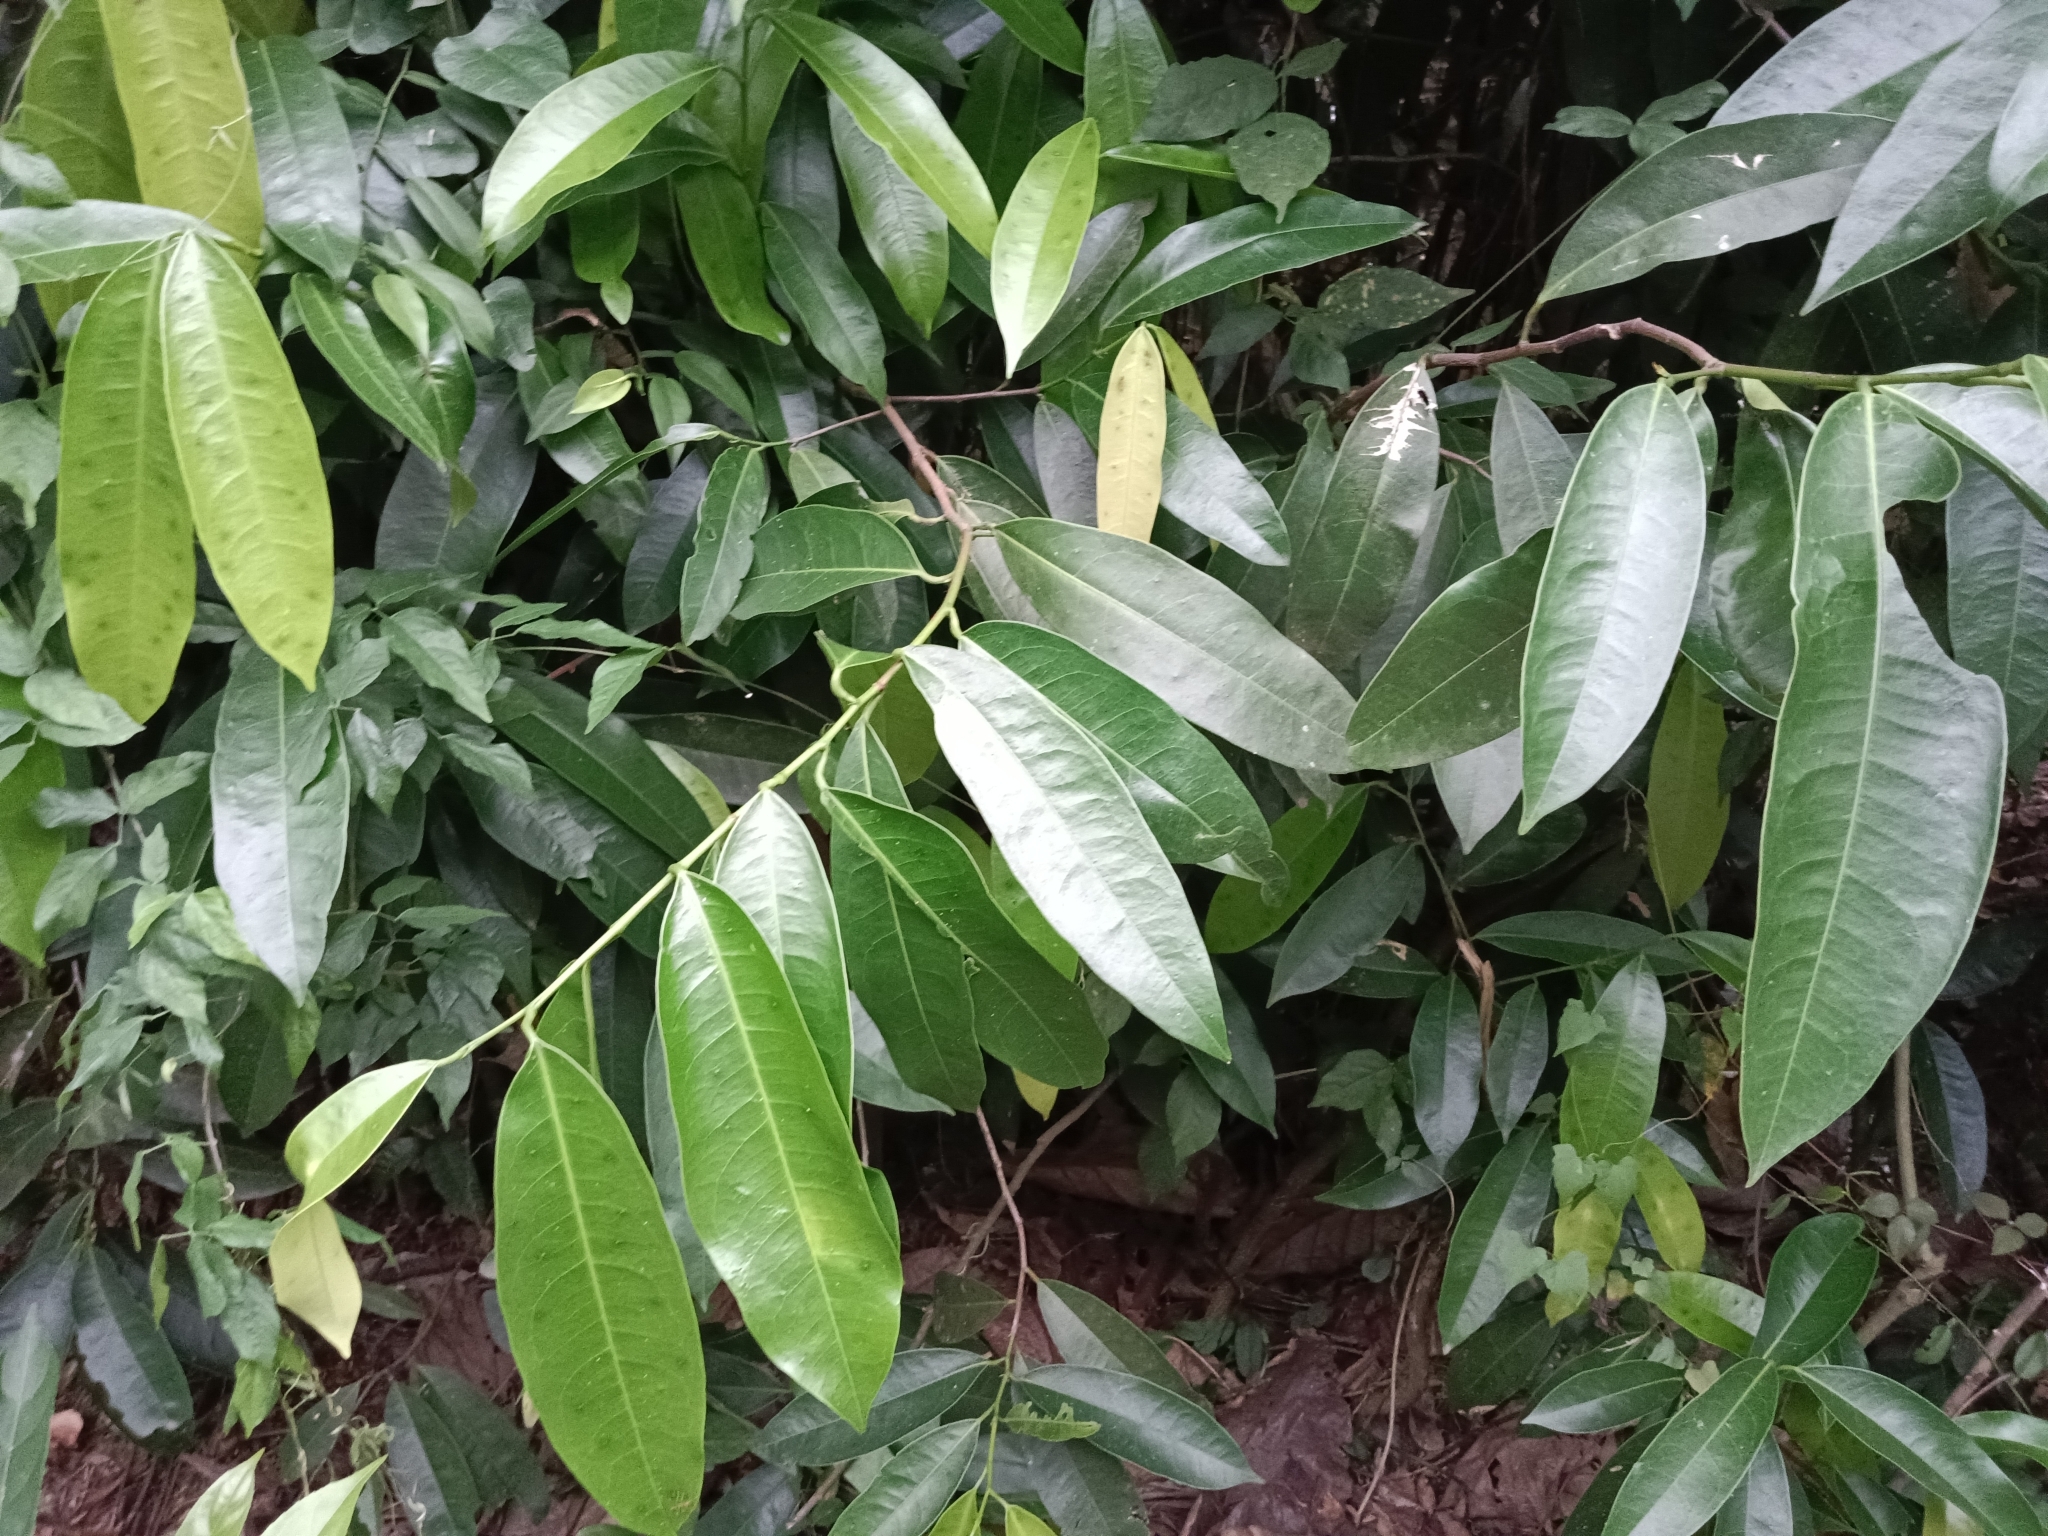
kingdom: Plantae
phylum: Tracheophyta
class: Magnoliopsida
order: Sapindales
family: Simaroubaceae
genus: Samadera
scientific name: Samadera indica
